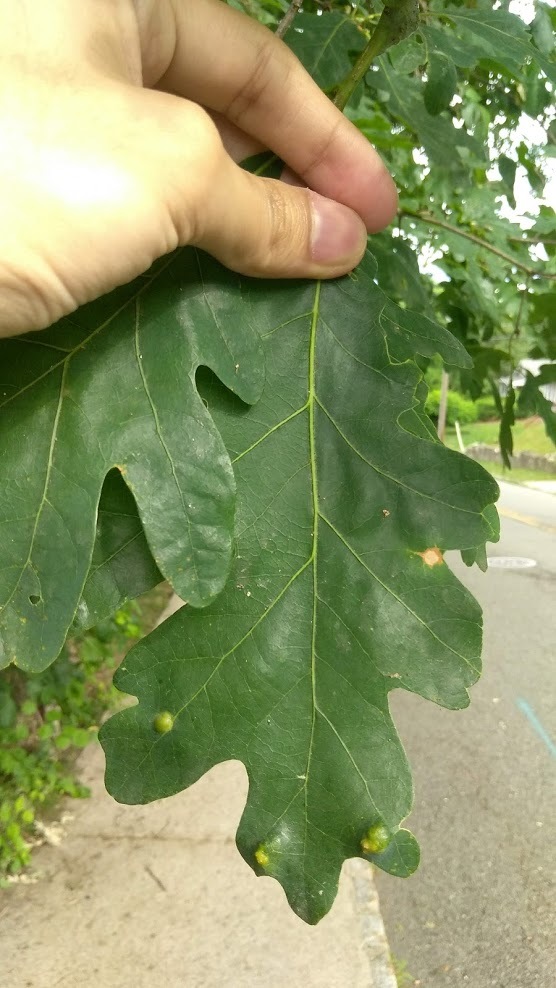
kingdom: Animalia
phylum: Arthropoda
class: Arachnida
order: Trombidiformes
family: Eriophyidae
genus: Aceria
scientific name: Aceria
